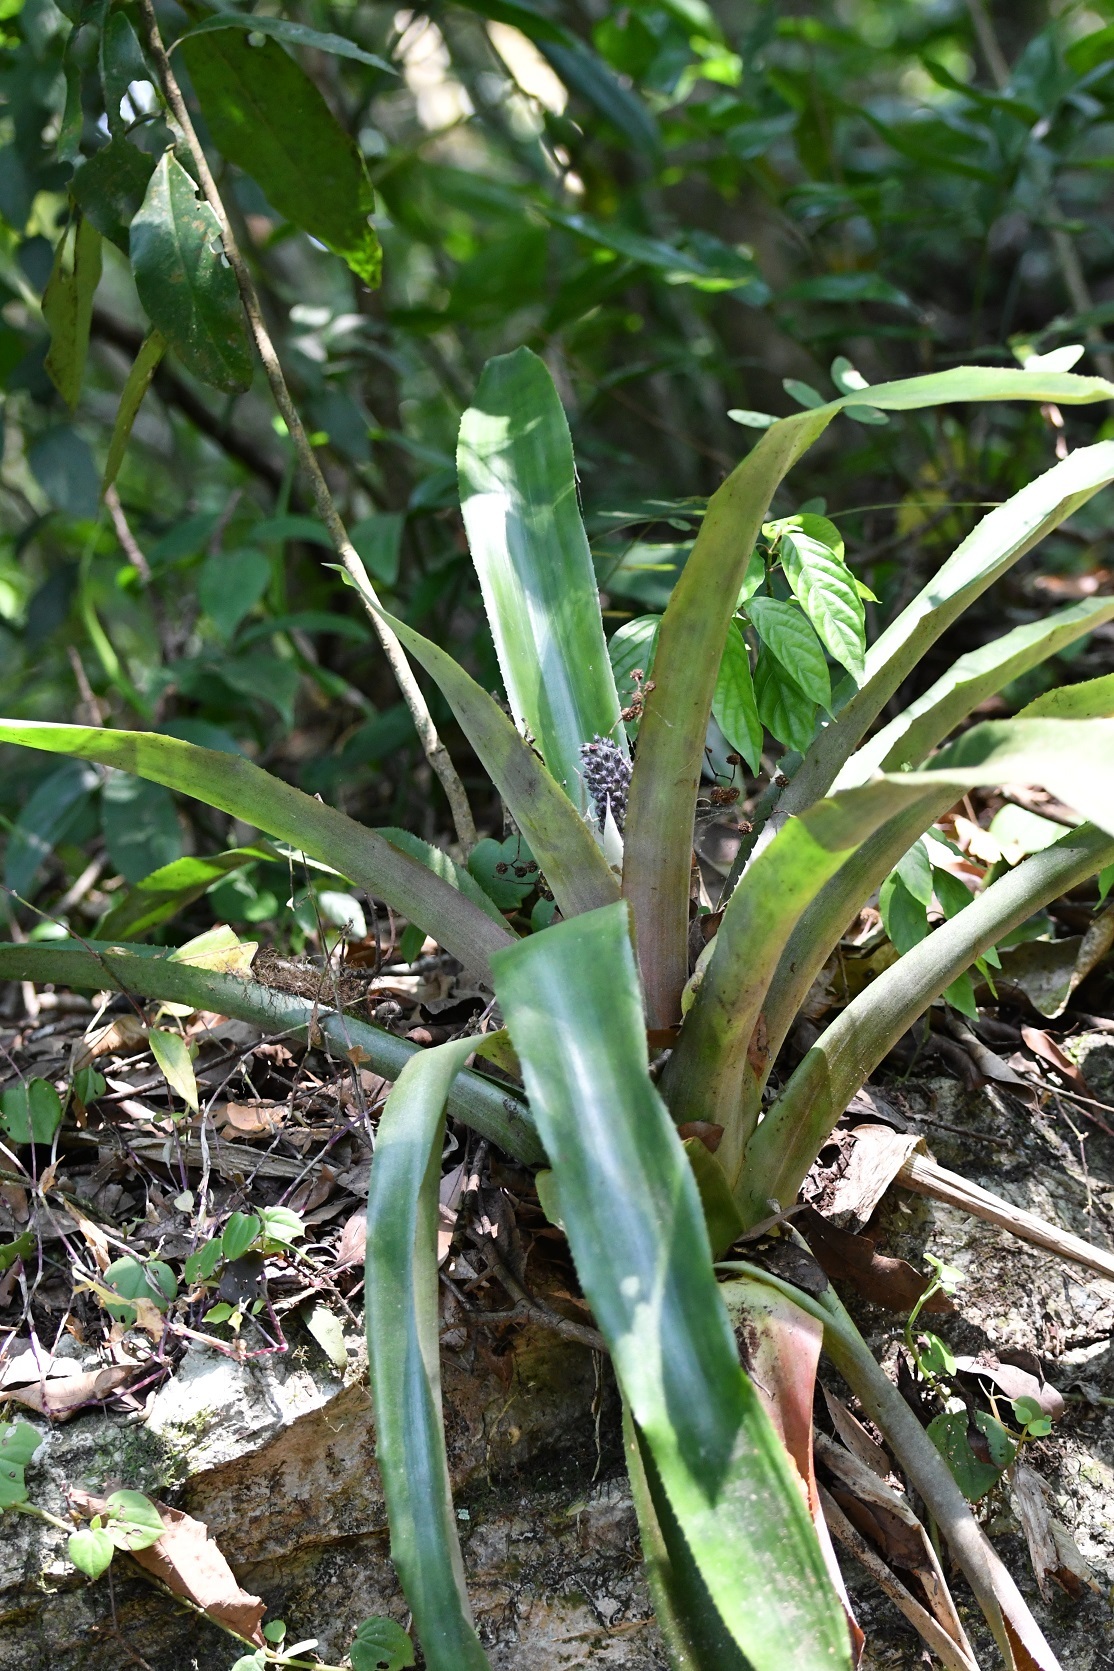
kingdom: Plantae
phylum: Tracheophyta
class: Liliopsida
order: Poales
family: Bromeliaceae
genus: Aechmea
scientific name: Aechmea mexicana
